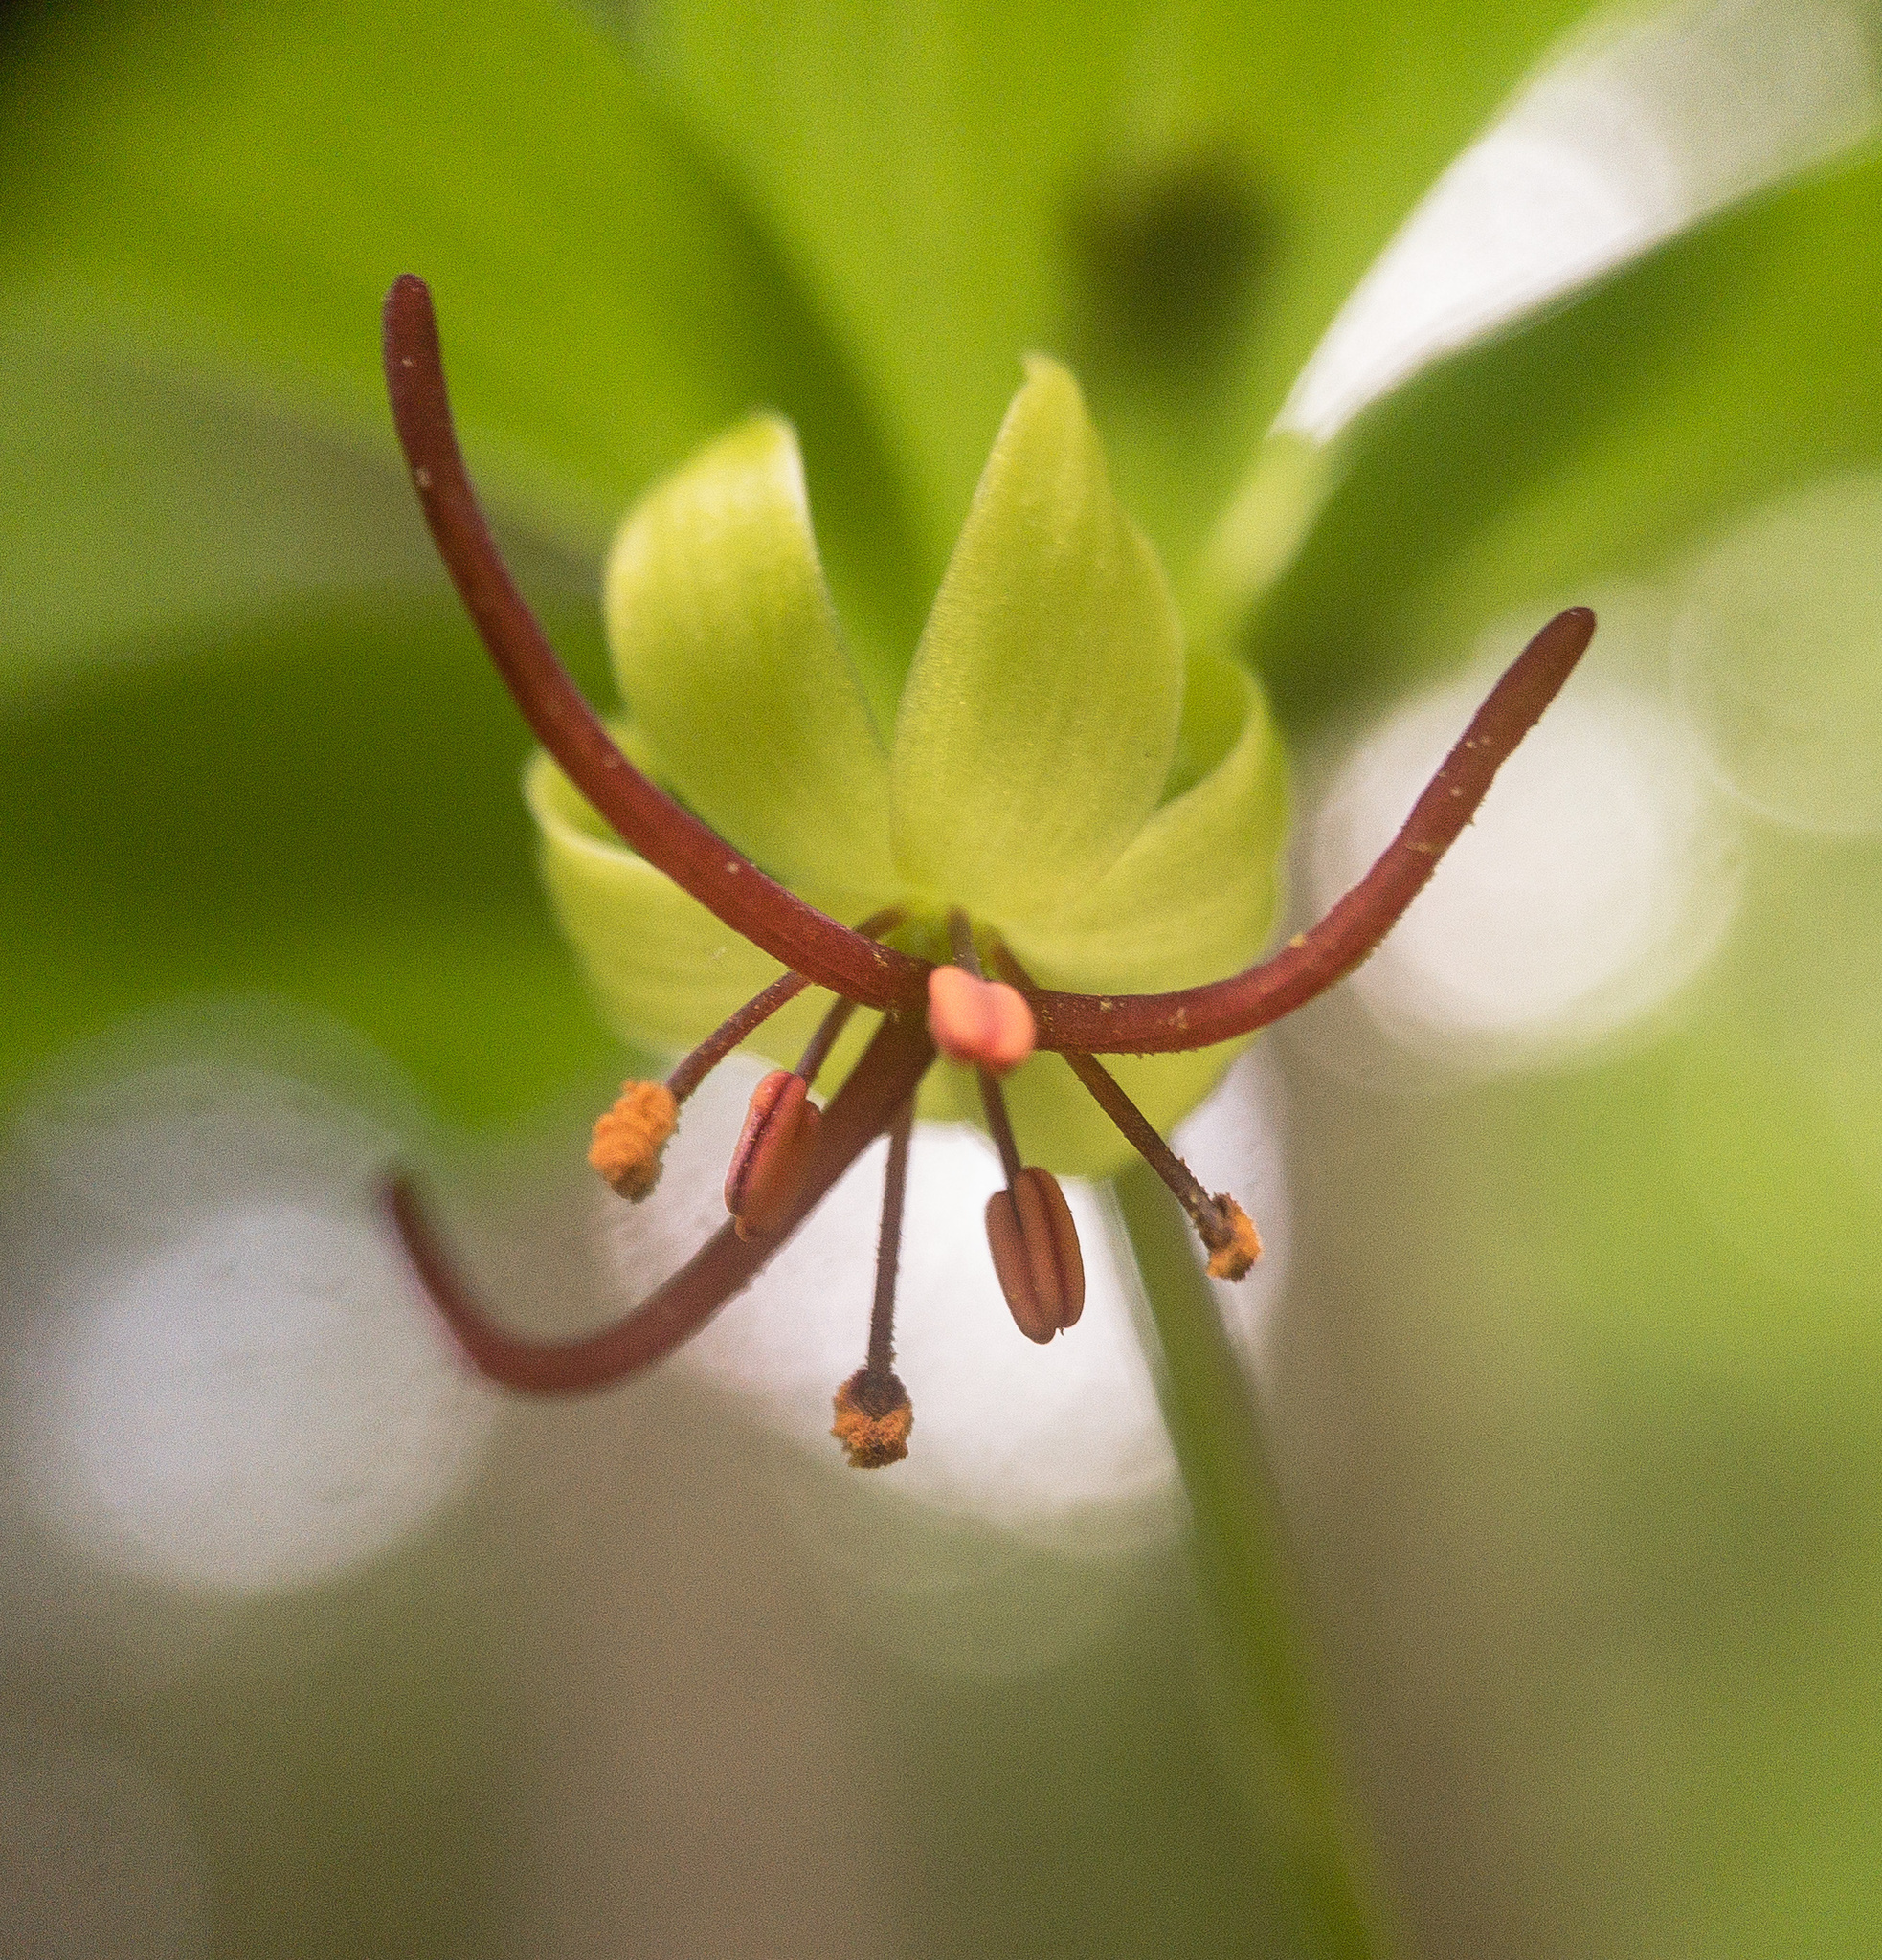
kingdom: Plantae
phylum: Tracheophyta
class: Liliopsida
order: Liliales
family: Liliaceae
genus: Medeola
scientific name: Medeola virginiana
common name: Indian cucumber-root
